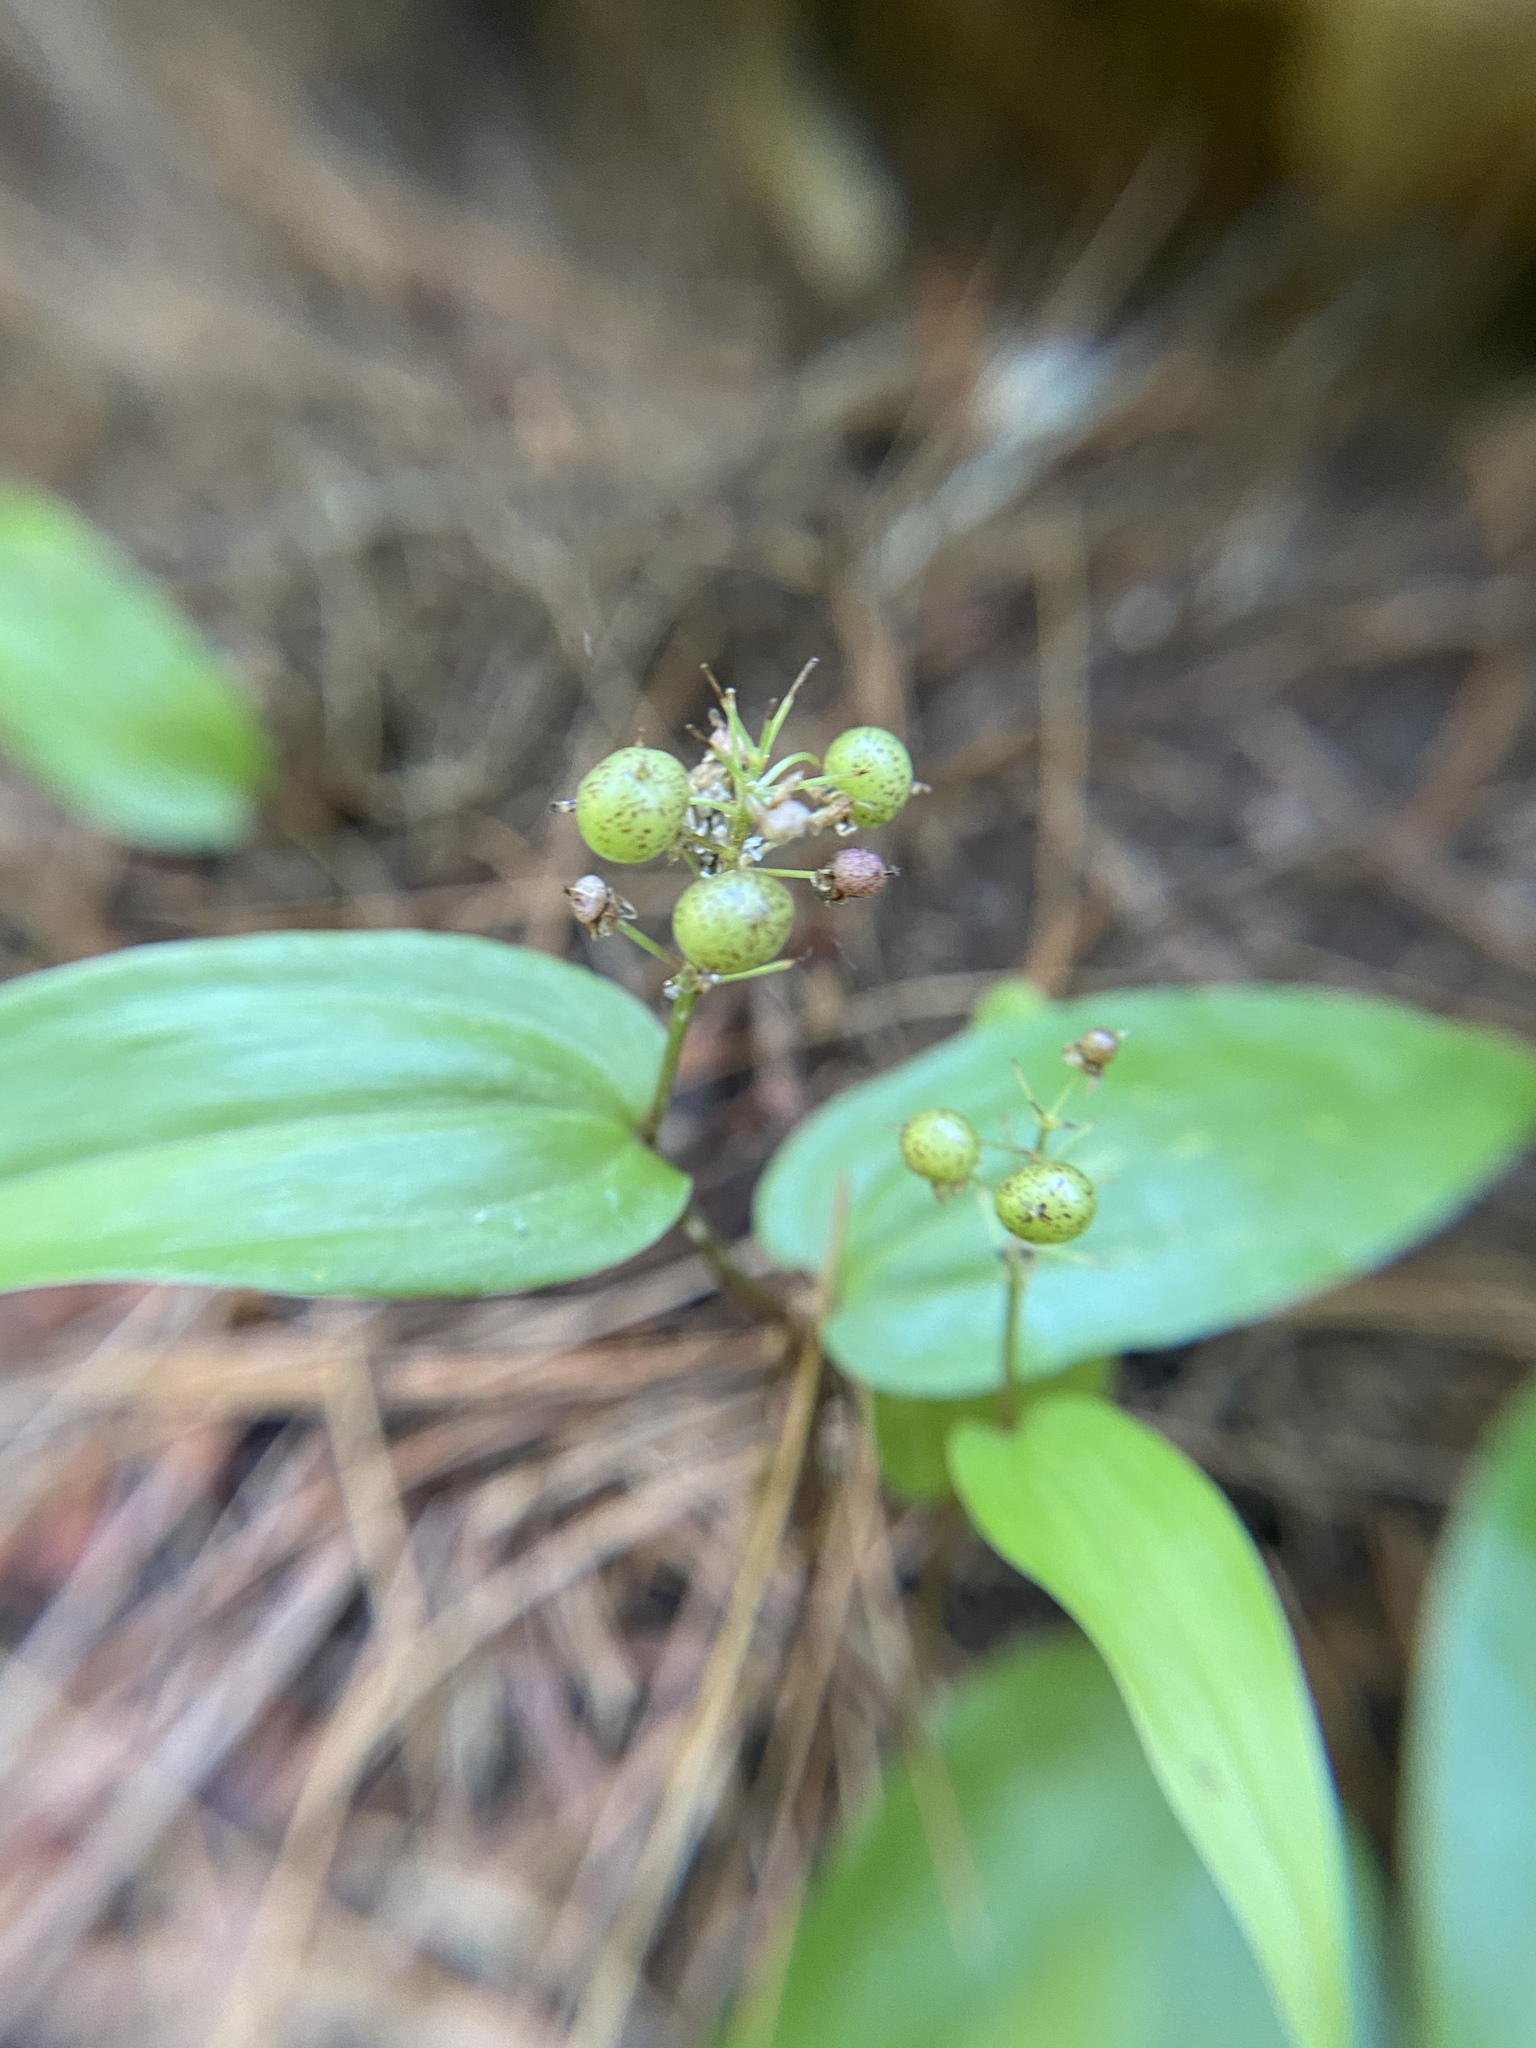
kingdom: Plantae
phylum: Tracheophyta
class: Liliopsida
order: Asparagales
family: Asparagaceae
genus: Maianthemum
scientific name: Maianthemum canadense
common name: False lily-of-the-valley
